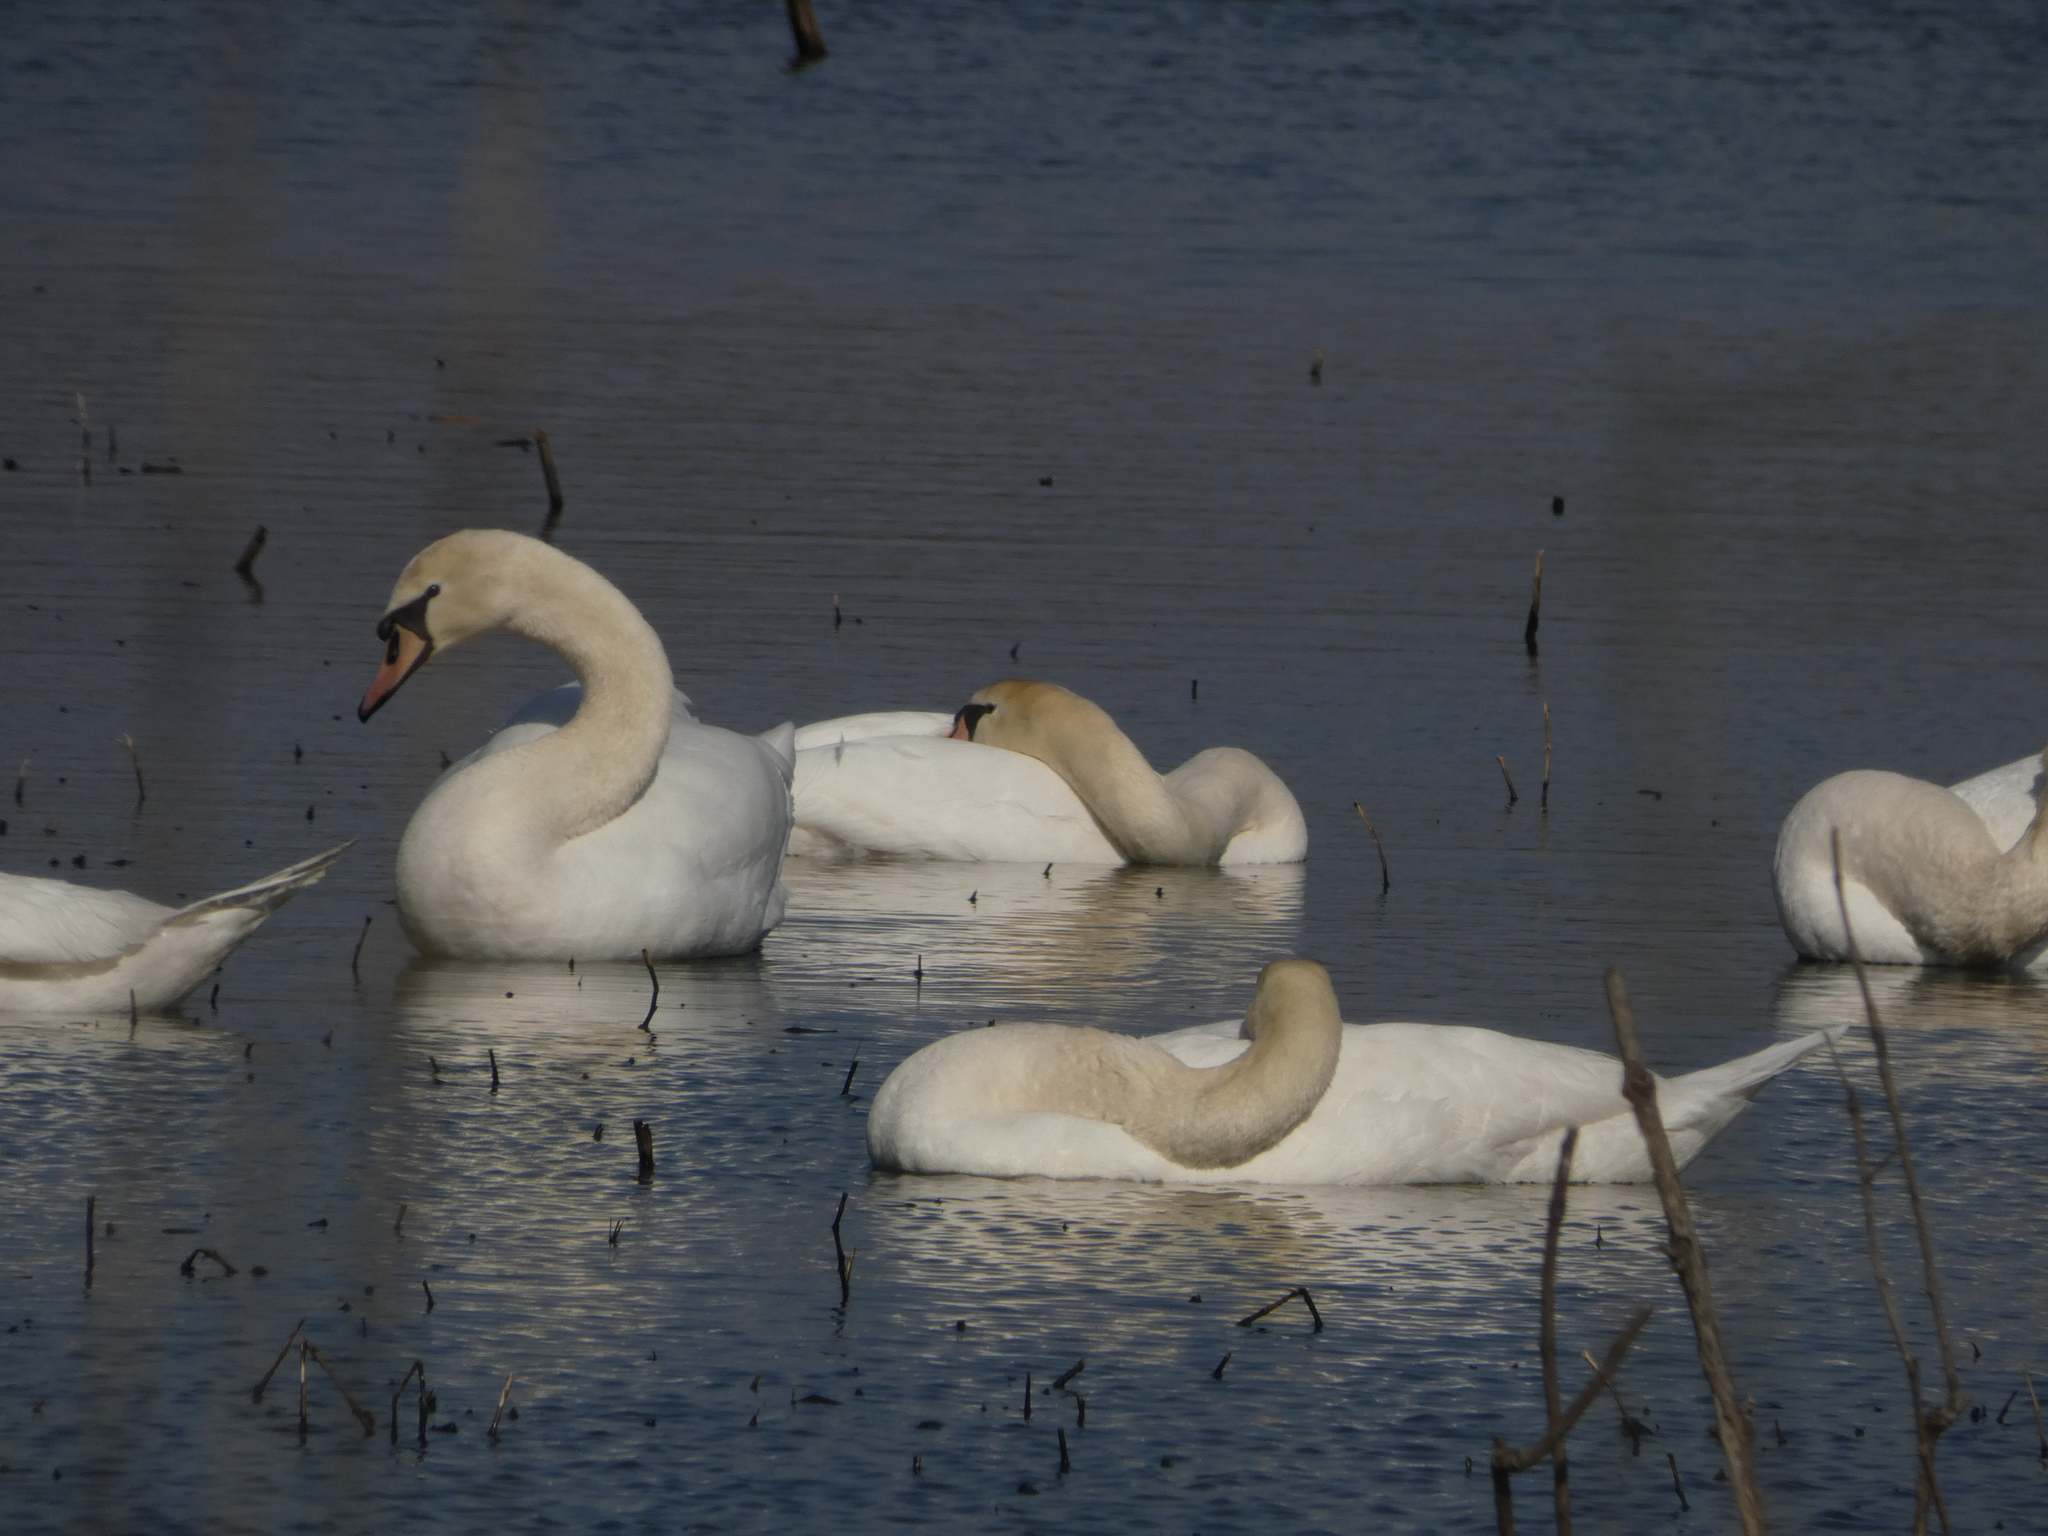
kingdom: Animalia
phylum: Chordata
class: Aves
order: Anseriformes
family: Anatidae
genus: Cygnus
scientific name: Cygnus olor
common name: Mute swan
